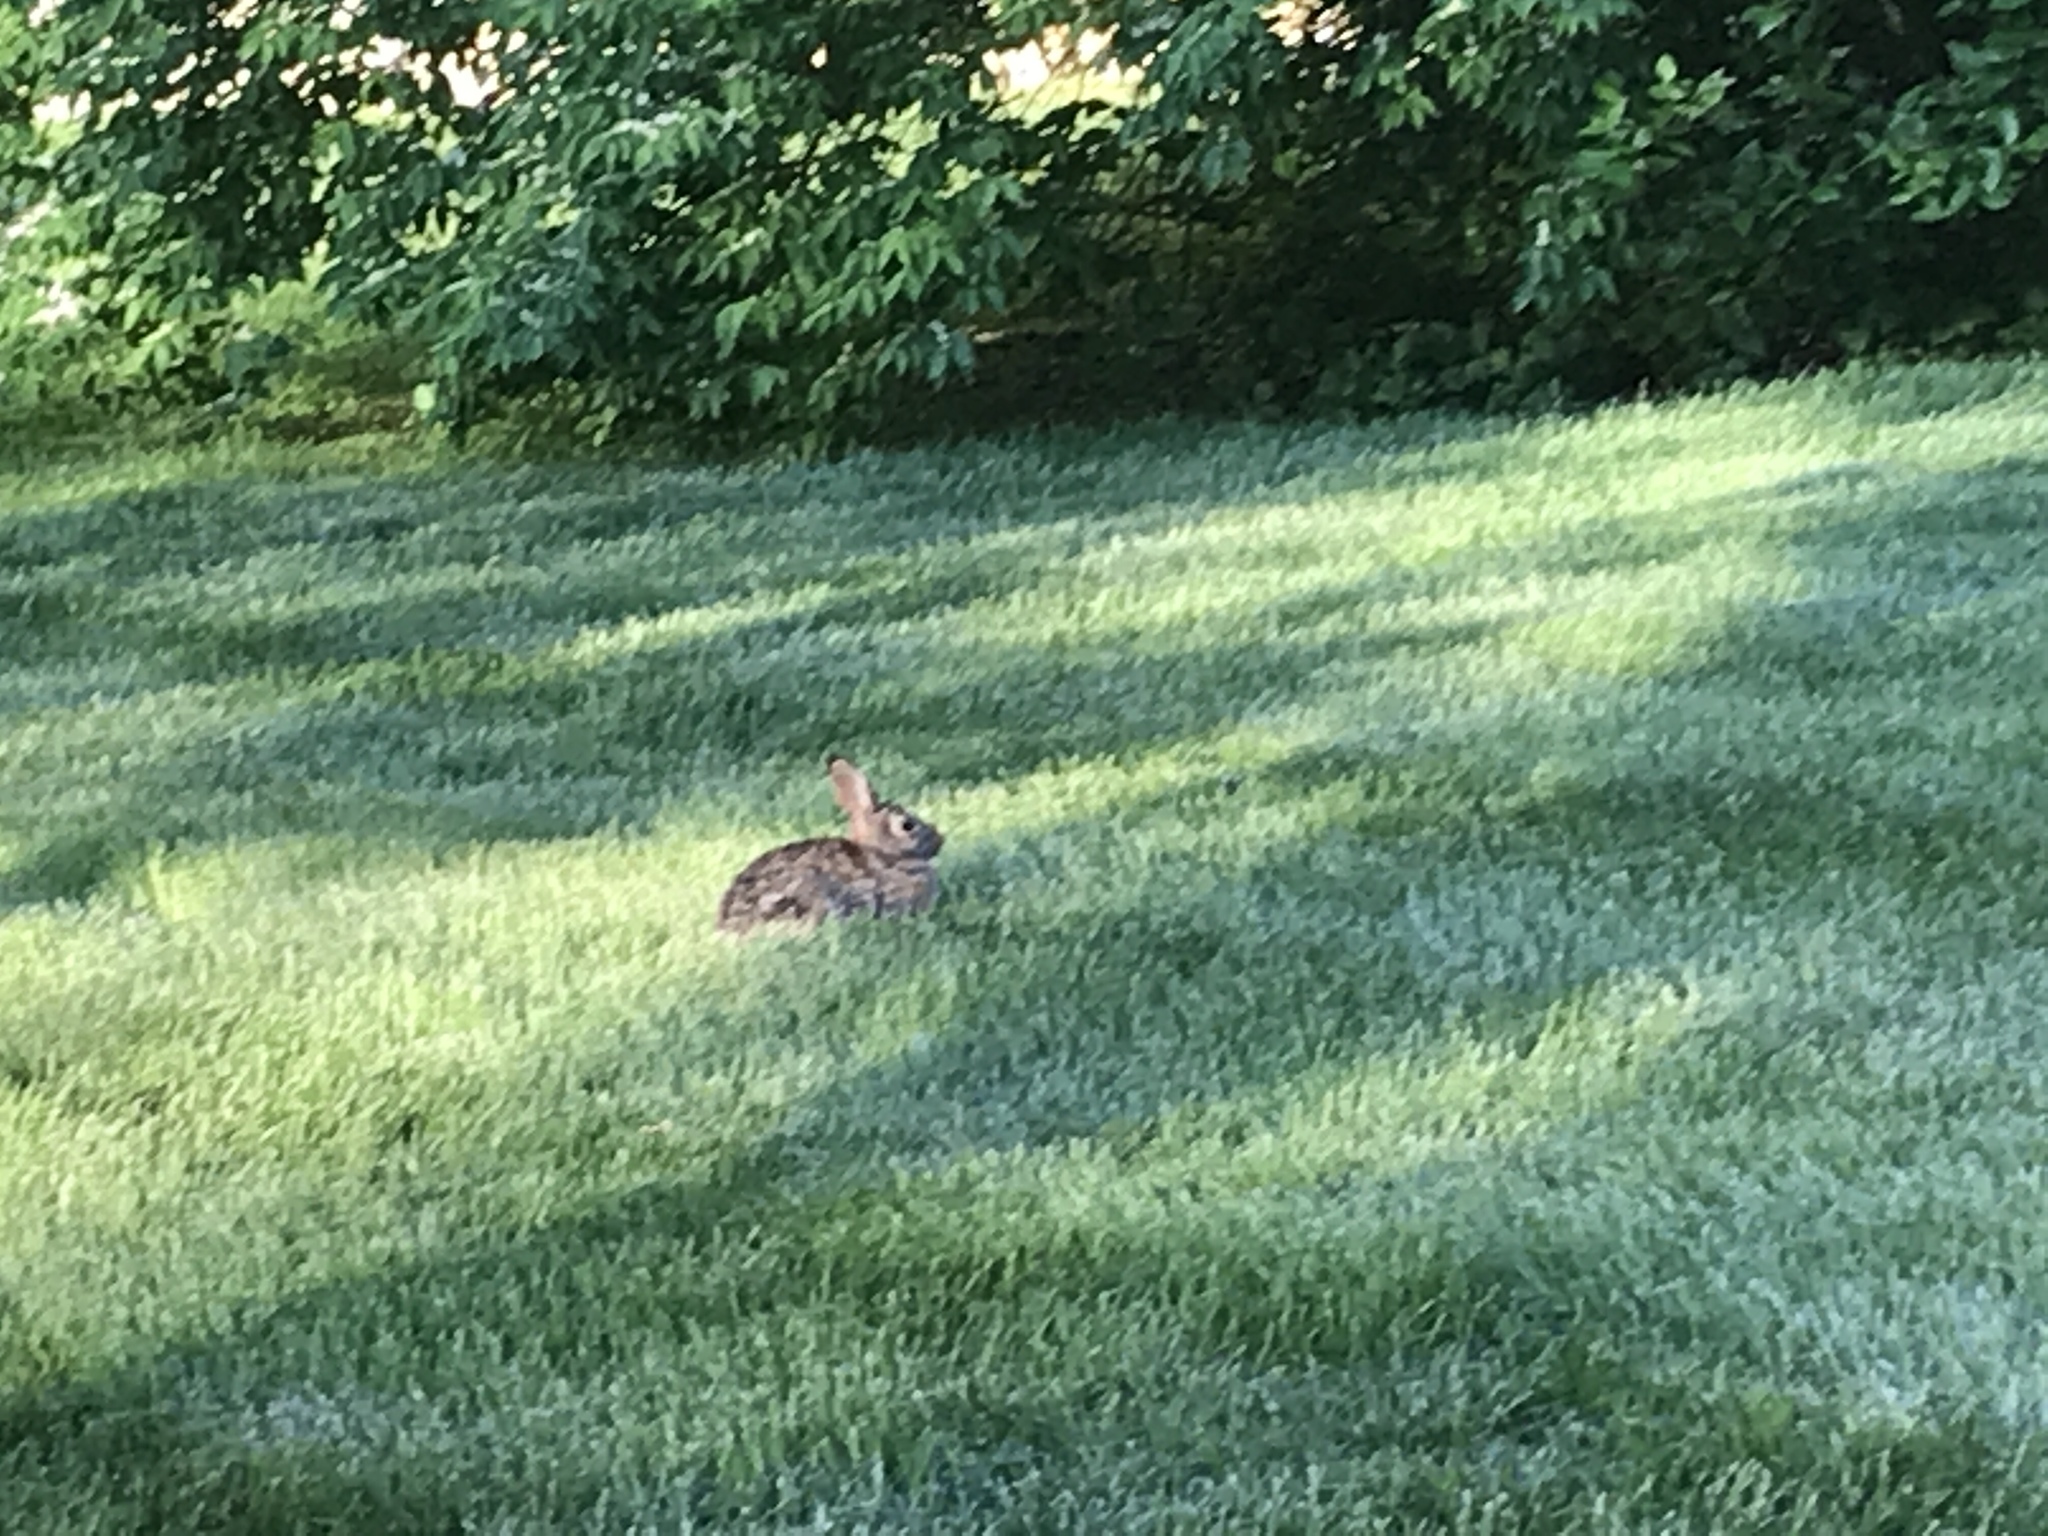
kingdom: Animalia
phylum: Chordata
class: Mammalia
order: Lagomorpha
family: Leporidae
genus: Sylvilagus
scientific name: Sylvilagus floridanus
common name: Eastern cottontail
